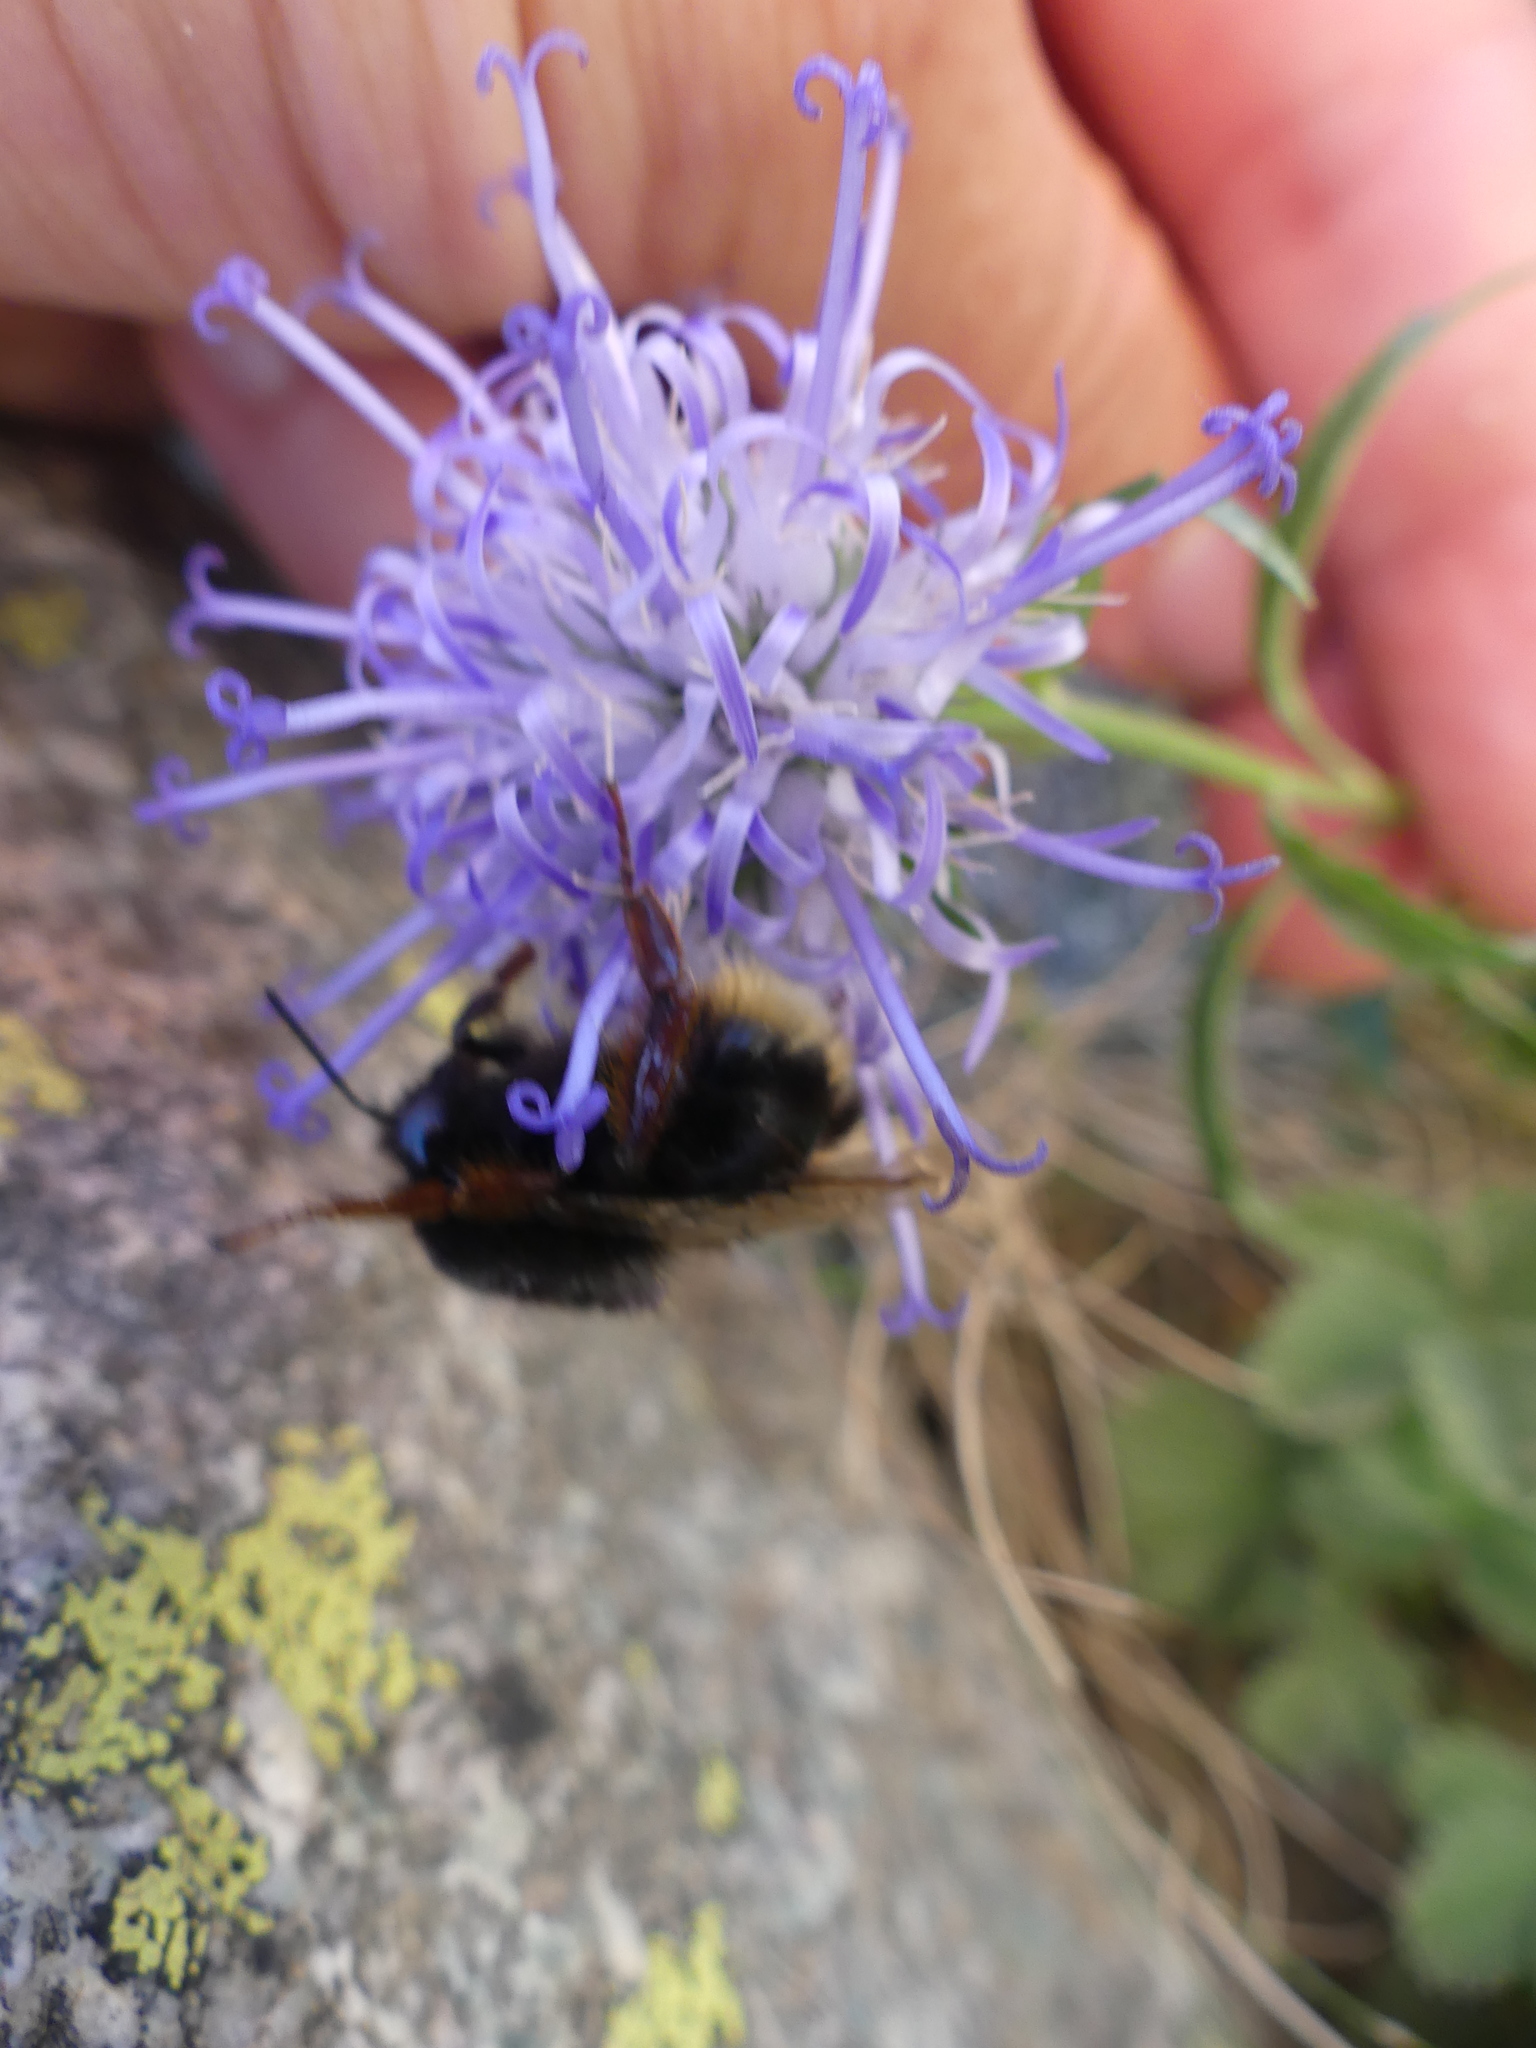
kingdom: Animalia
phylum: Arthropoda
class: Insecta
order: Hymenoptera
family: Apidae
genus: Bombus
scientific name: Bombus terrestris
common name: Buff-tailed bumblebee
